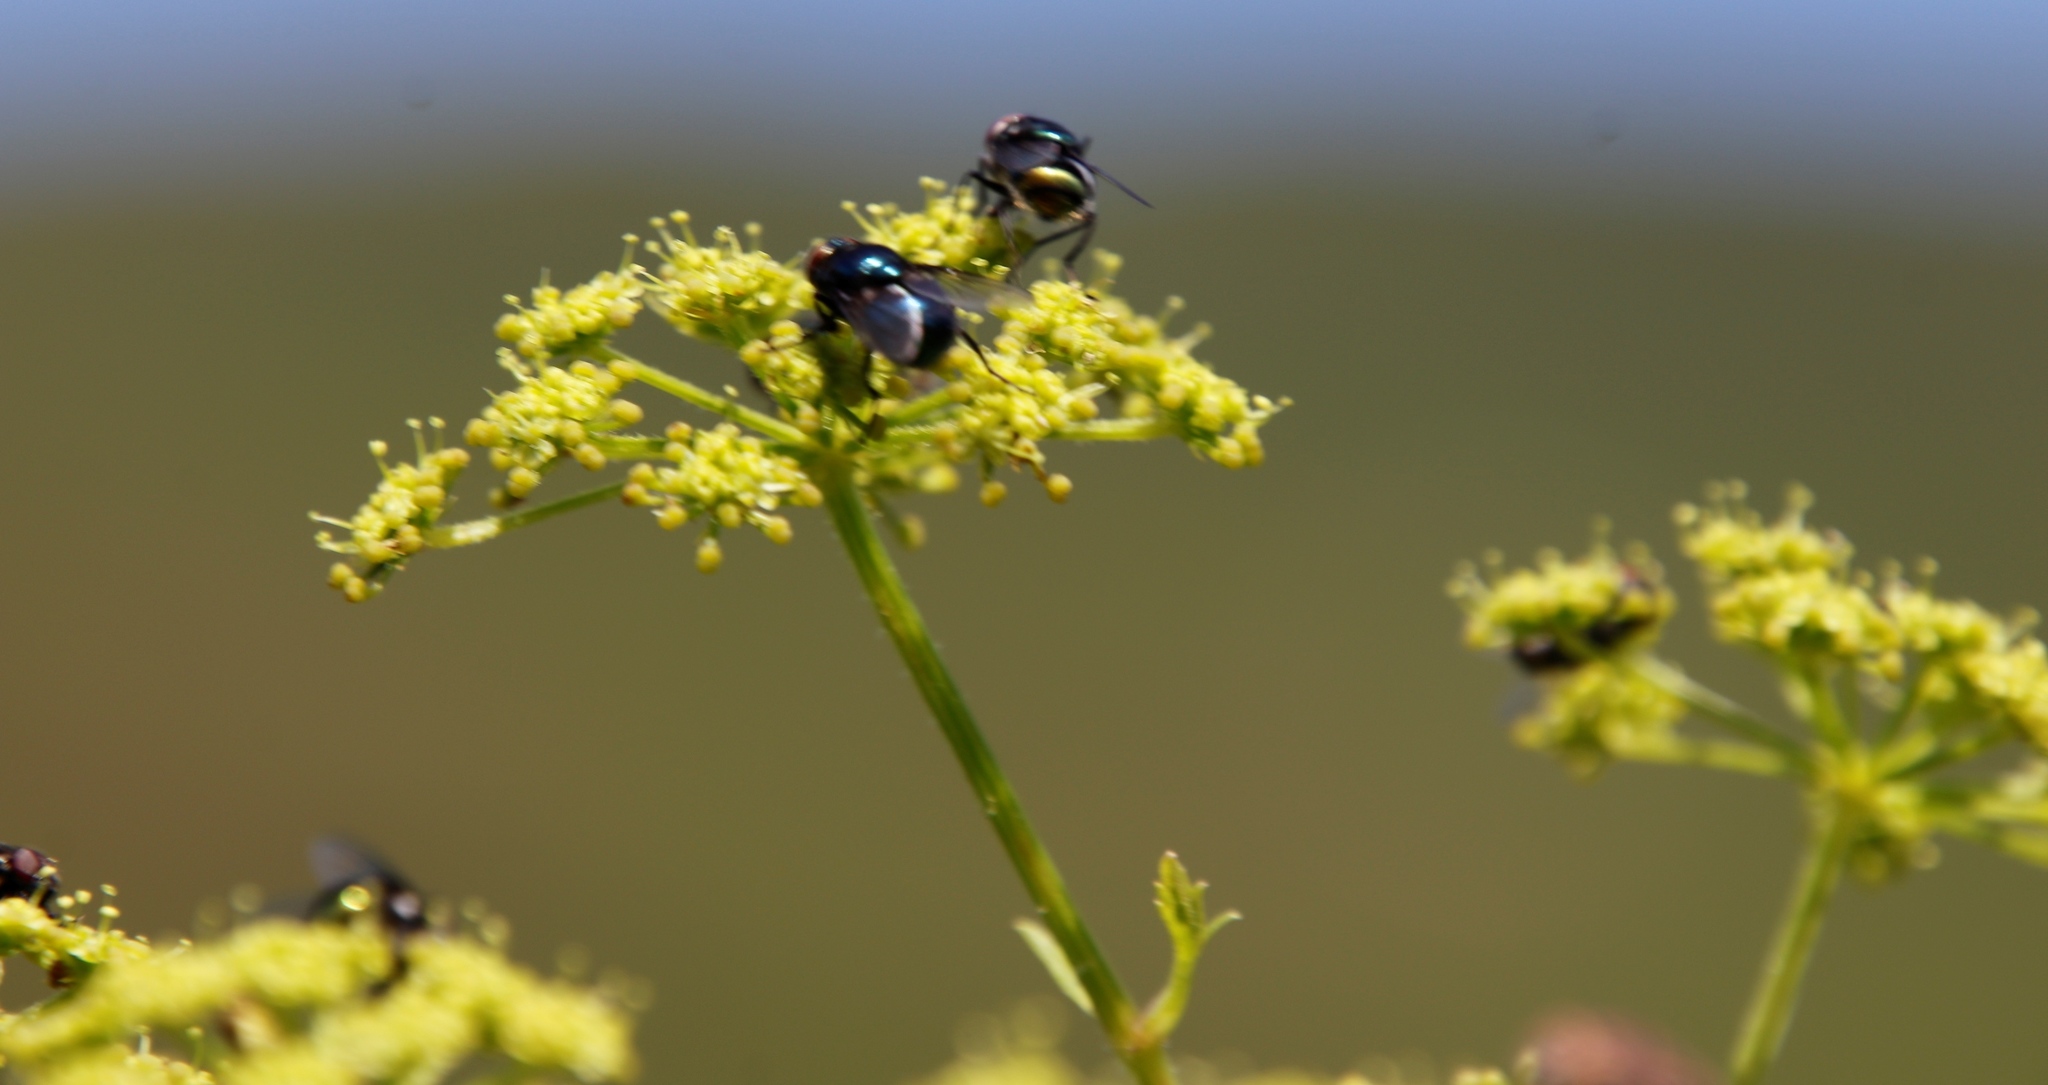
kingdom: Animalia
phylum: Arthropoda
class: Insecta
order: Diptera
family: Calliphoridae
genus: Chrysomya
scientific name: Chrysomya chloropyga
